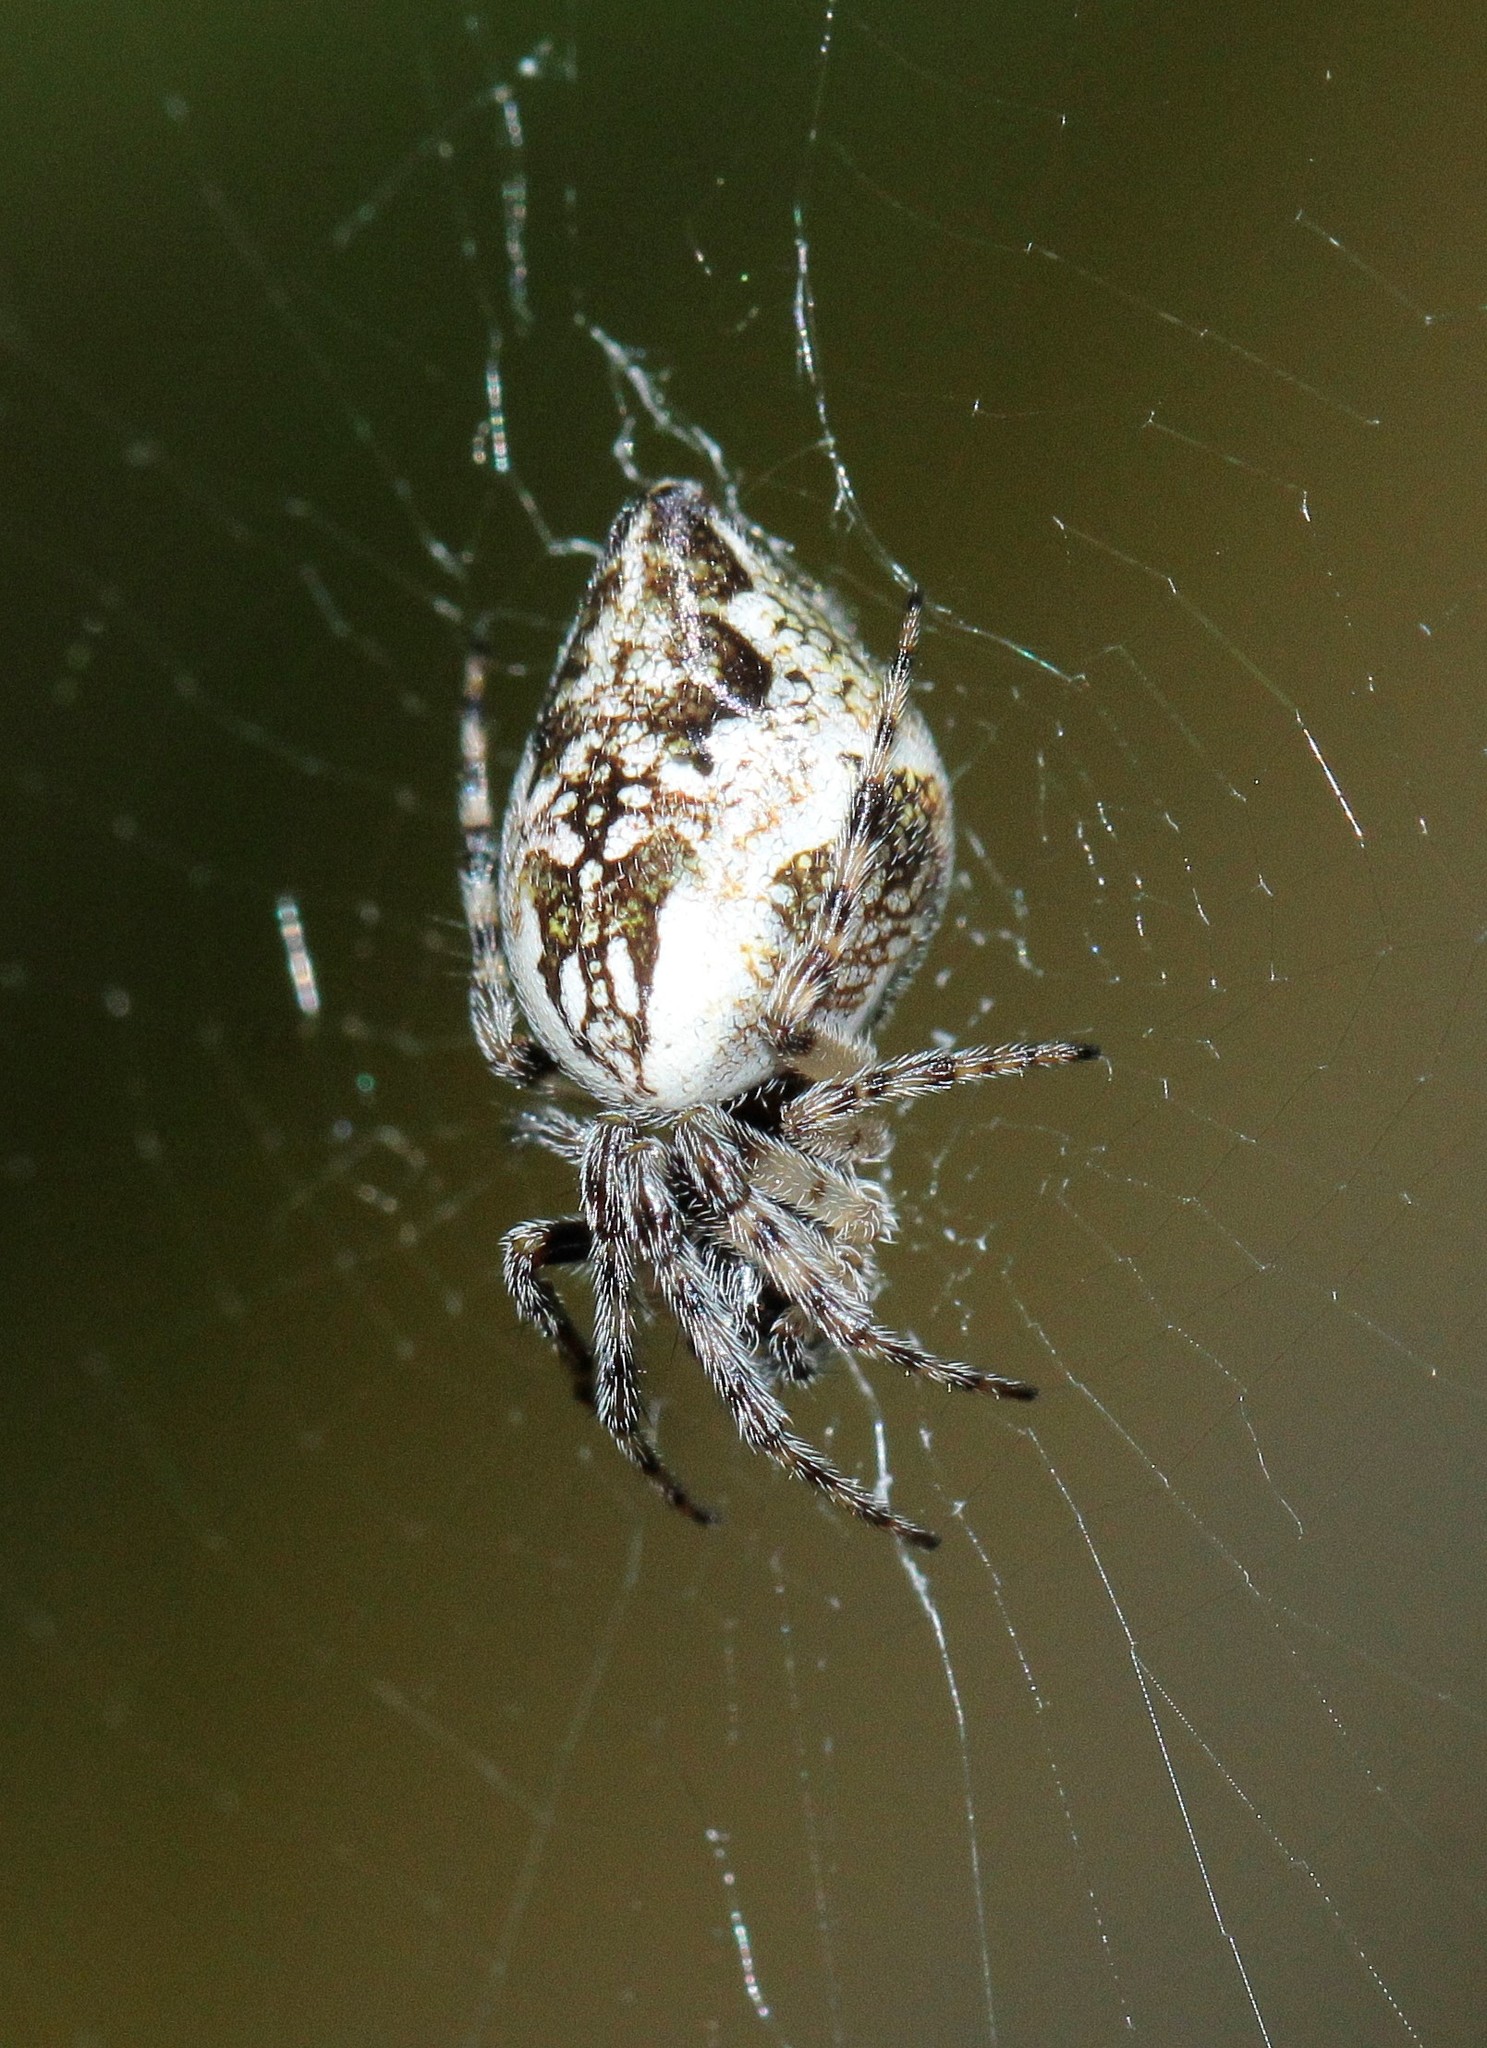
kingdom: Animalia
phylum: Arthropoda
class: Arachnida
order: Araneae
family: Araneidae
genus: Cyclosa
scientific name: Cyclosa conica
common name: Conical trashline orbweaver
